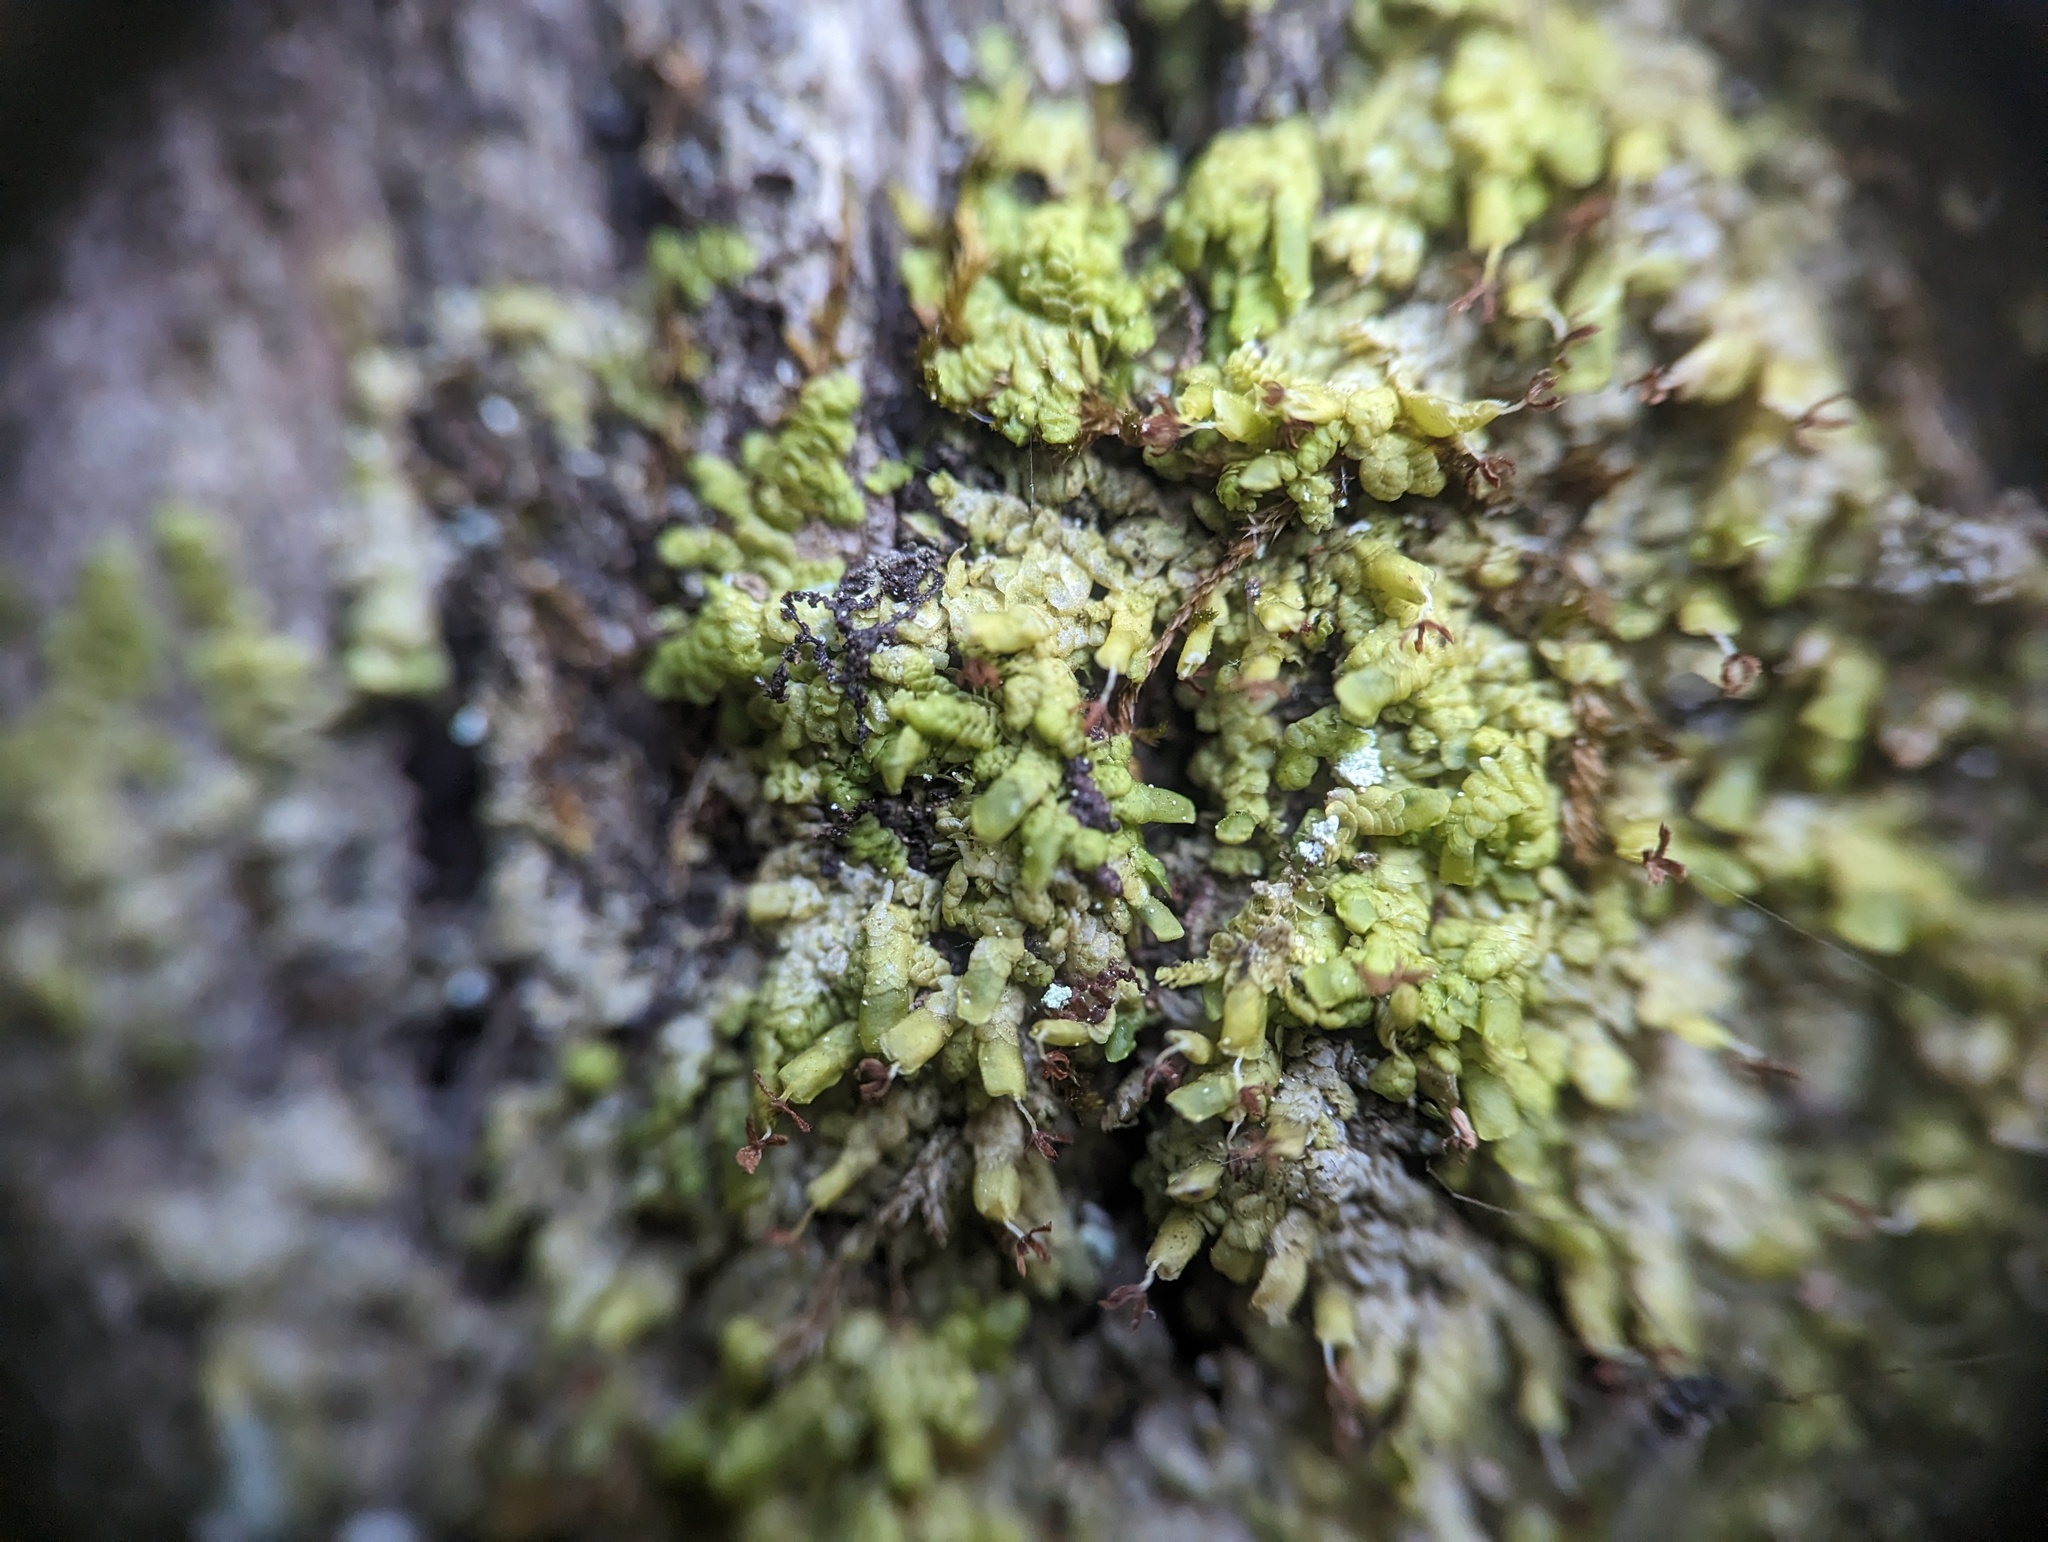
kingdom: Plantae
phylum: Marchantiophyta
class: Jungermanniopsida
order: Porellales
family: Radulaceae
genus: Radula
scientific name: Radula complanata
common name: Flat-leaved scalewort
